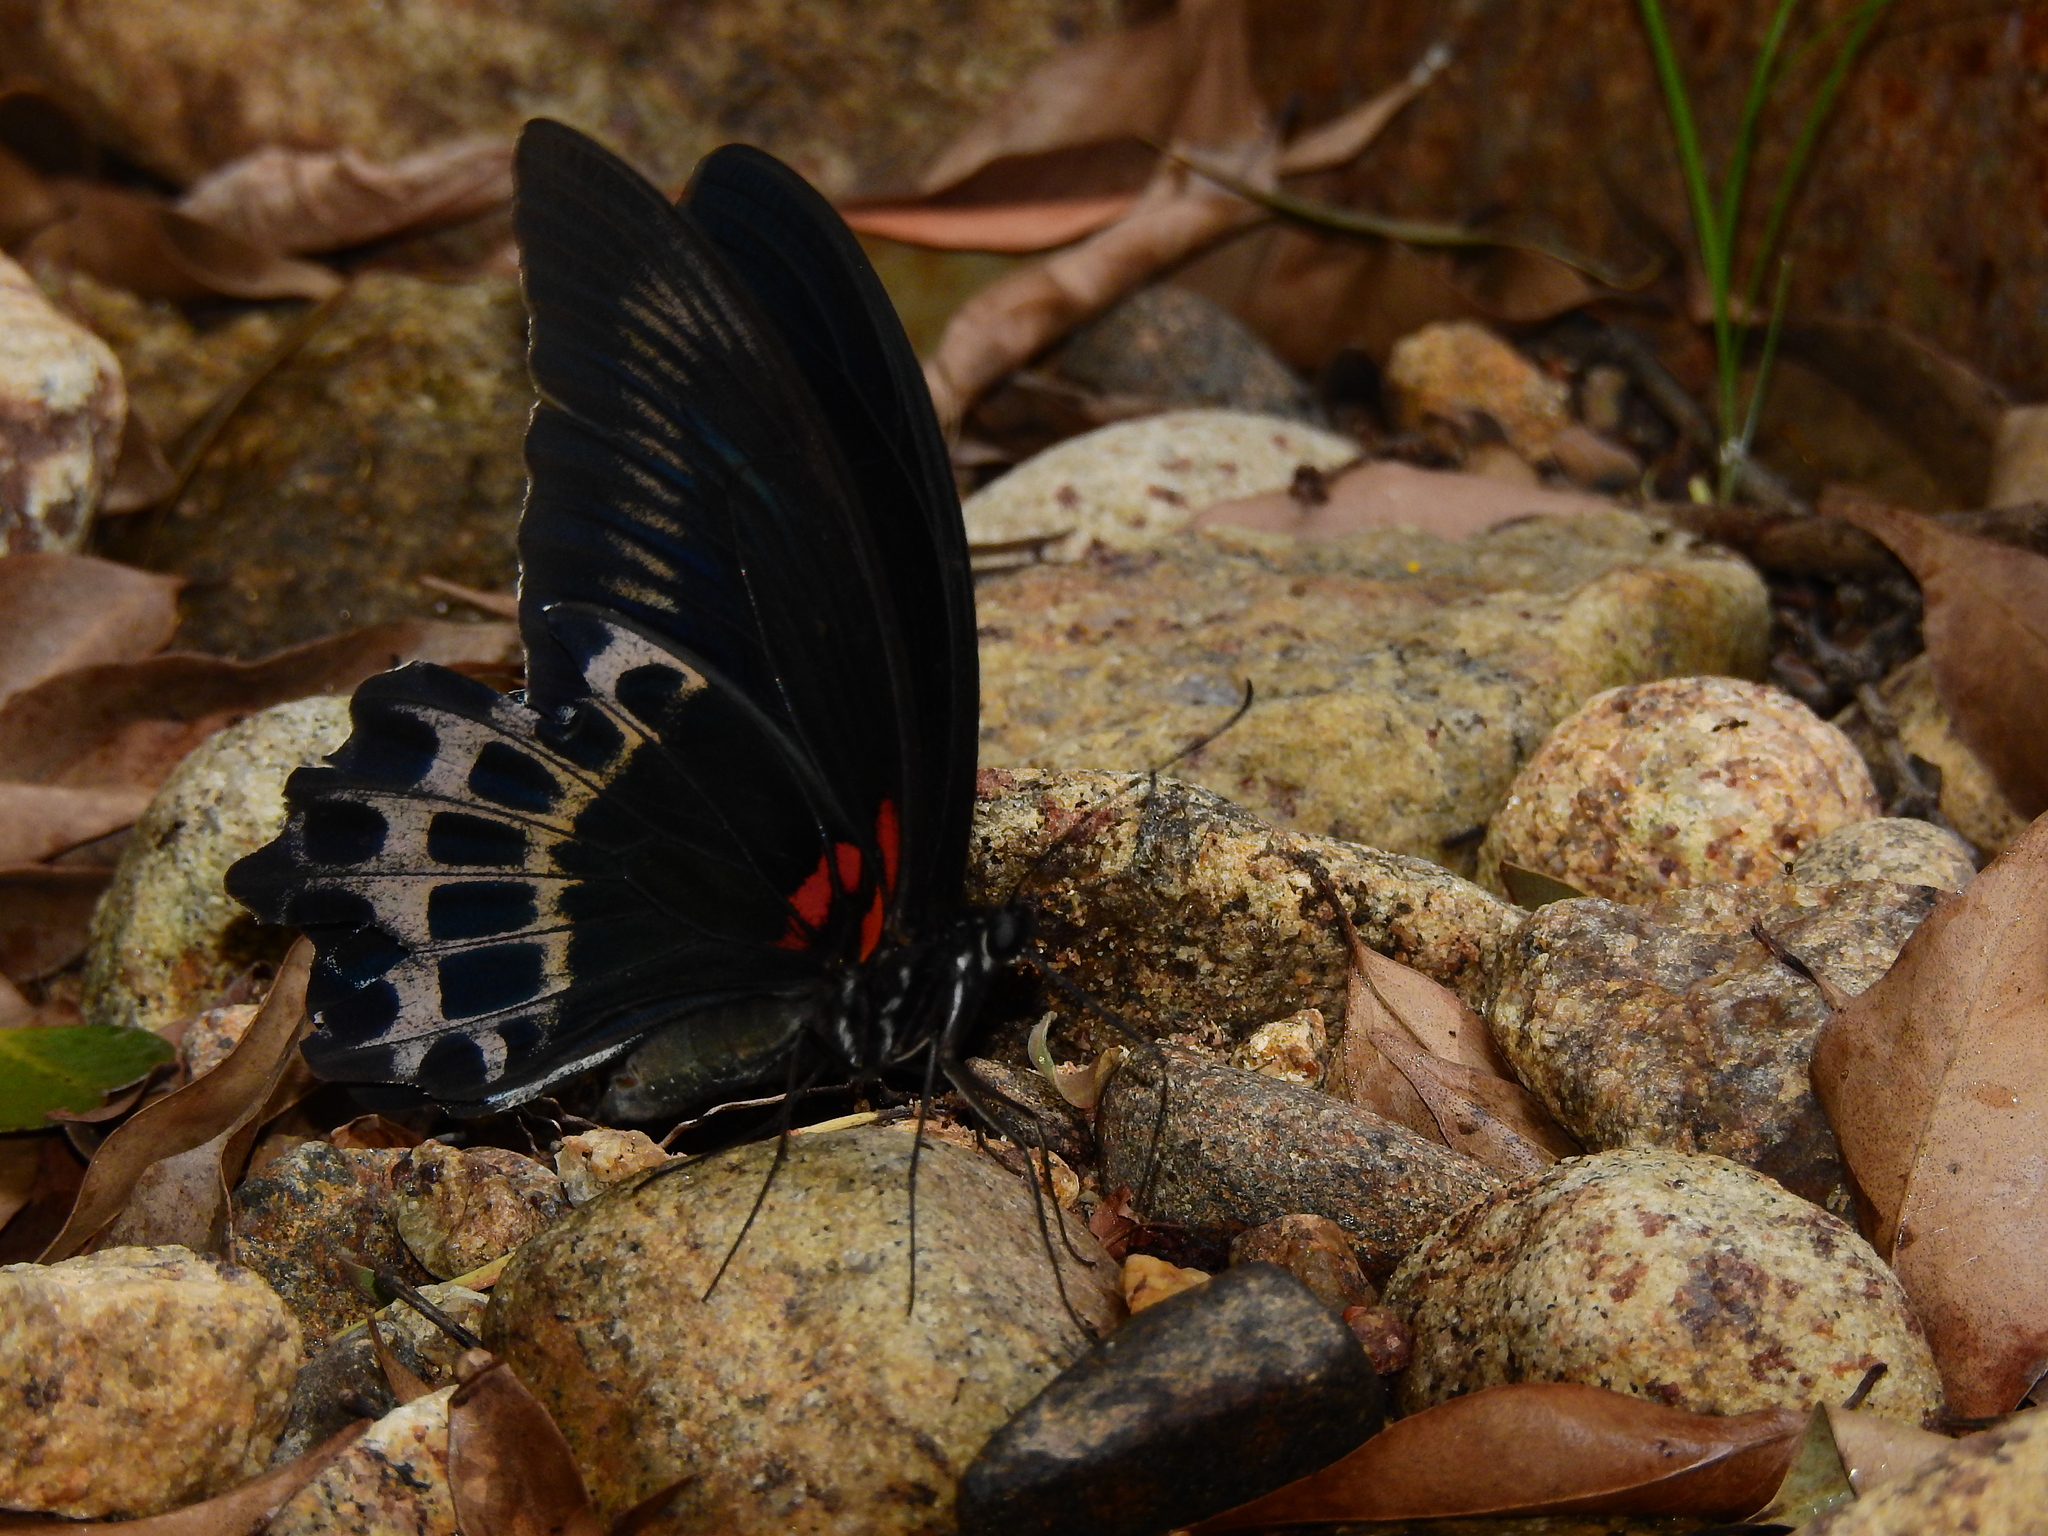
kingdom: Animalia
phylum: Arthropoda
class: Insecta
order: Lepidoptera
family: Papilionidae
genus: Papilio
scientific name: Papilio memnon
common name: Great mormon
